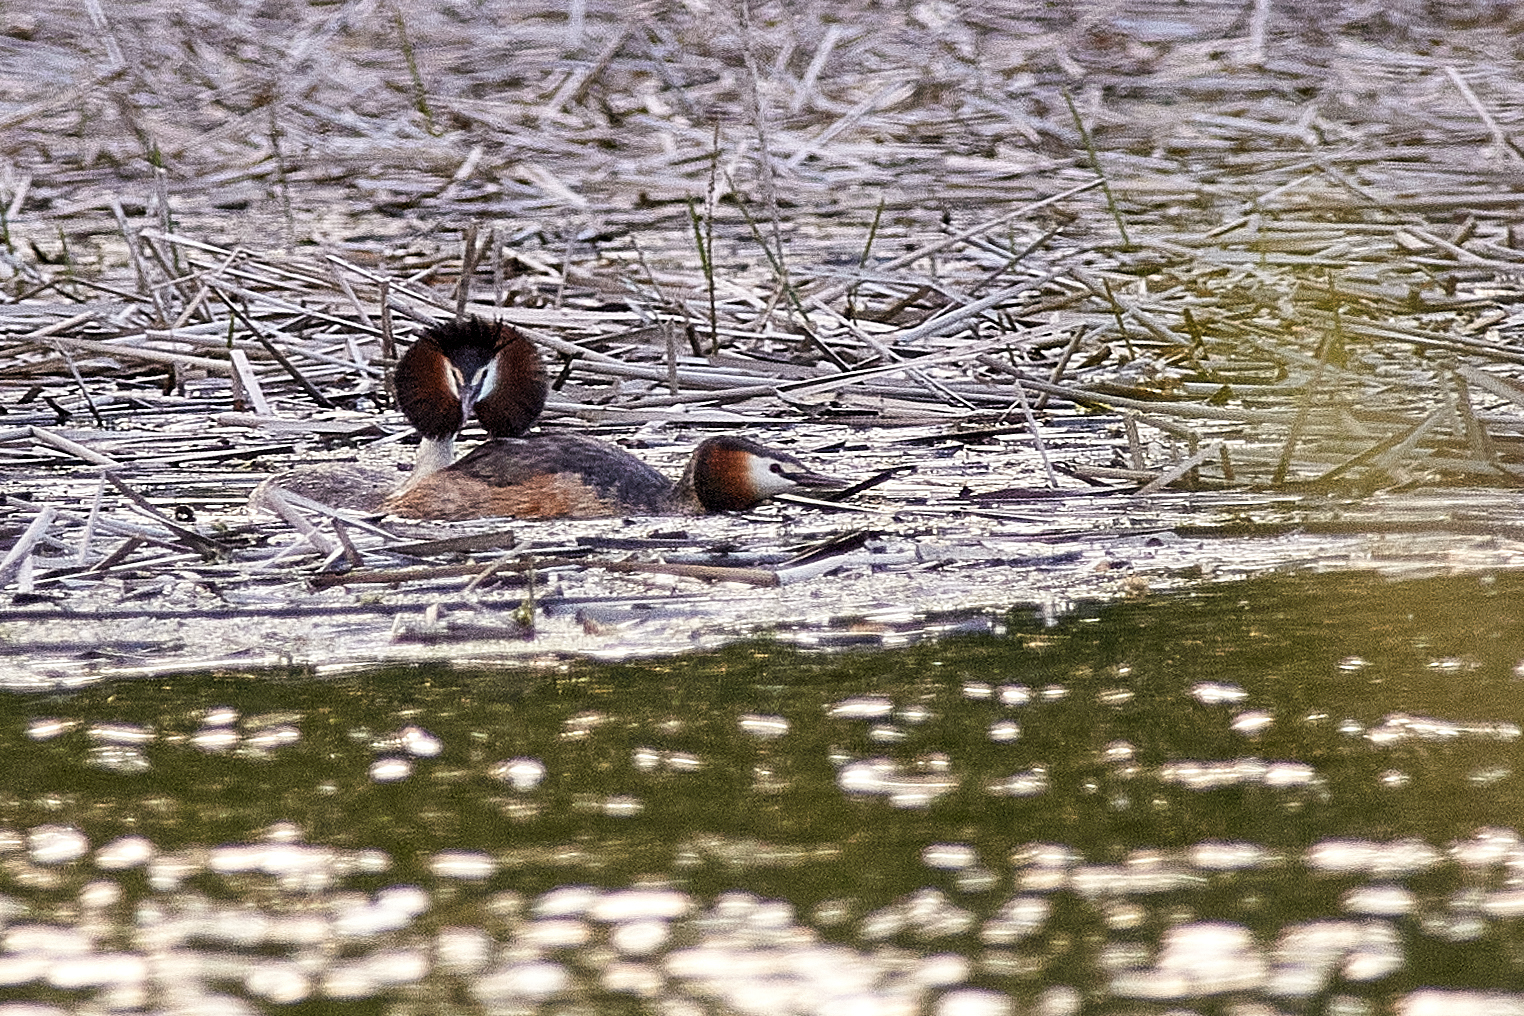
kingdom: Animalia
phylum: Chordata
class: Aves
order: Podicipediformes
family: Podicipedidae
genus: Podiceps
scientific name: Podiceps cristatus
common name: Great crested grebe
